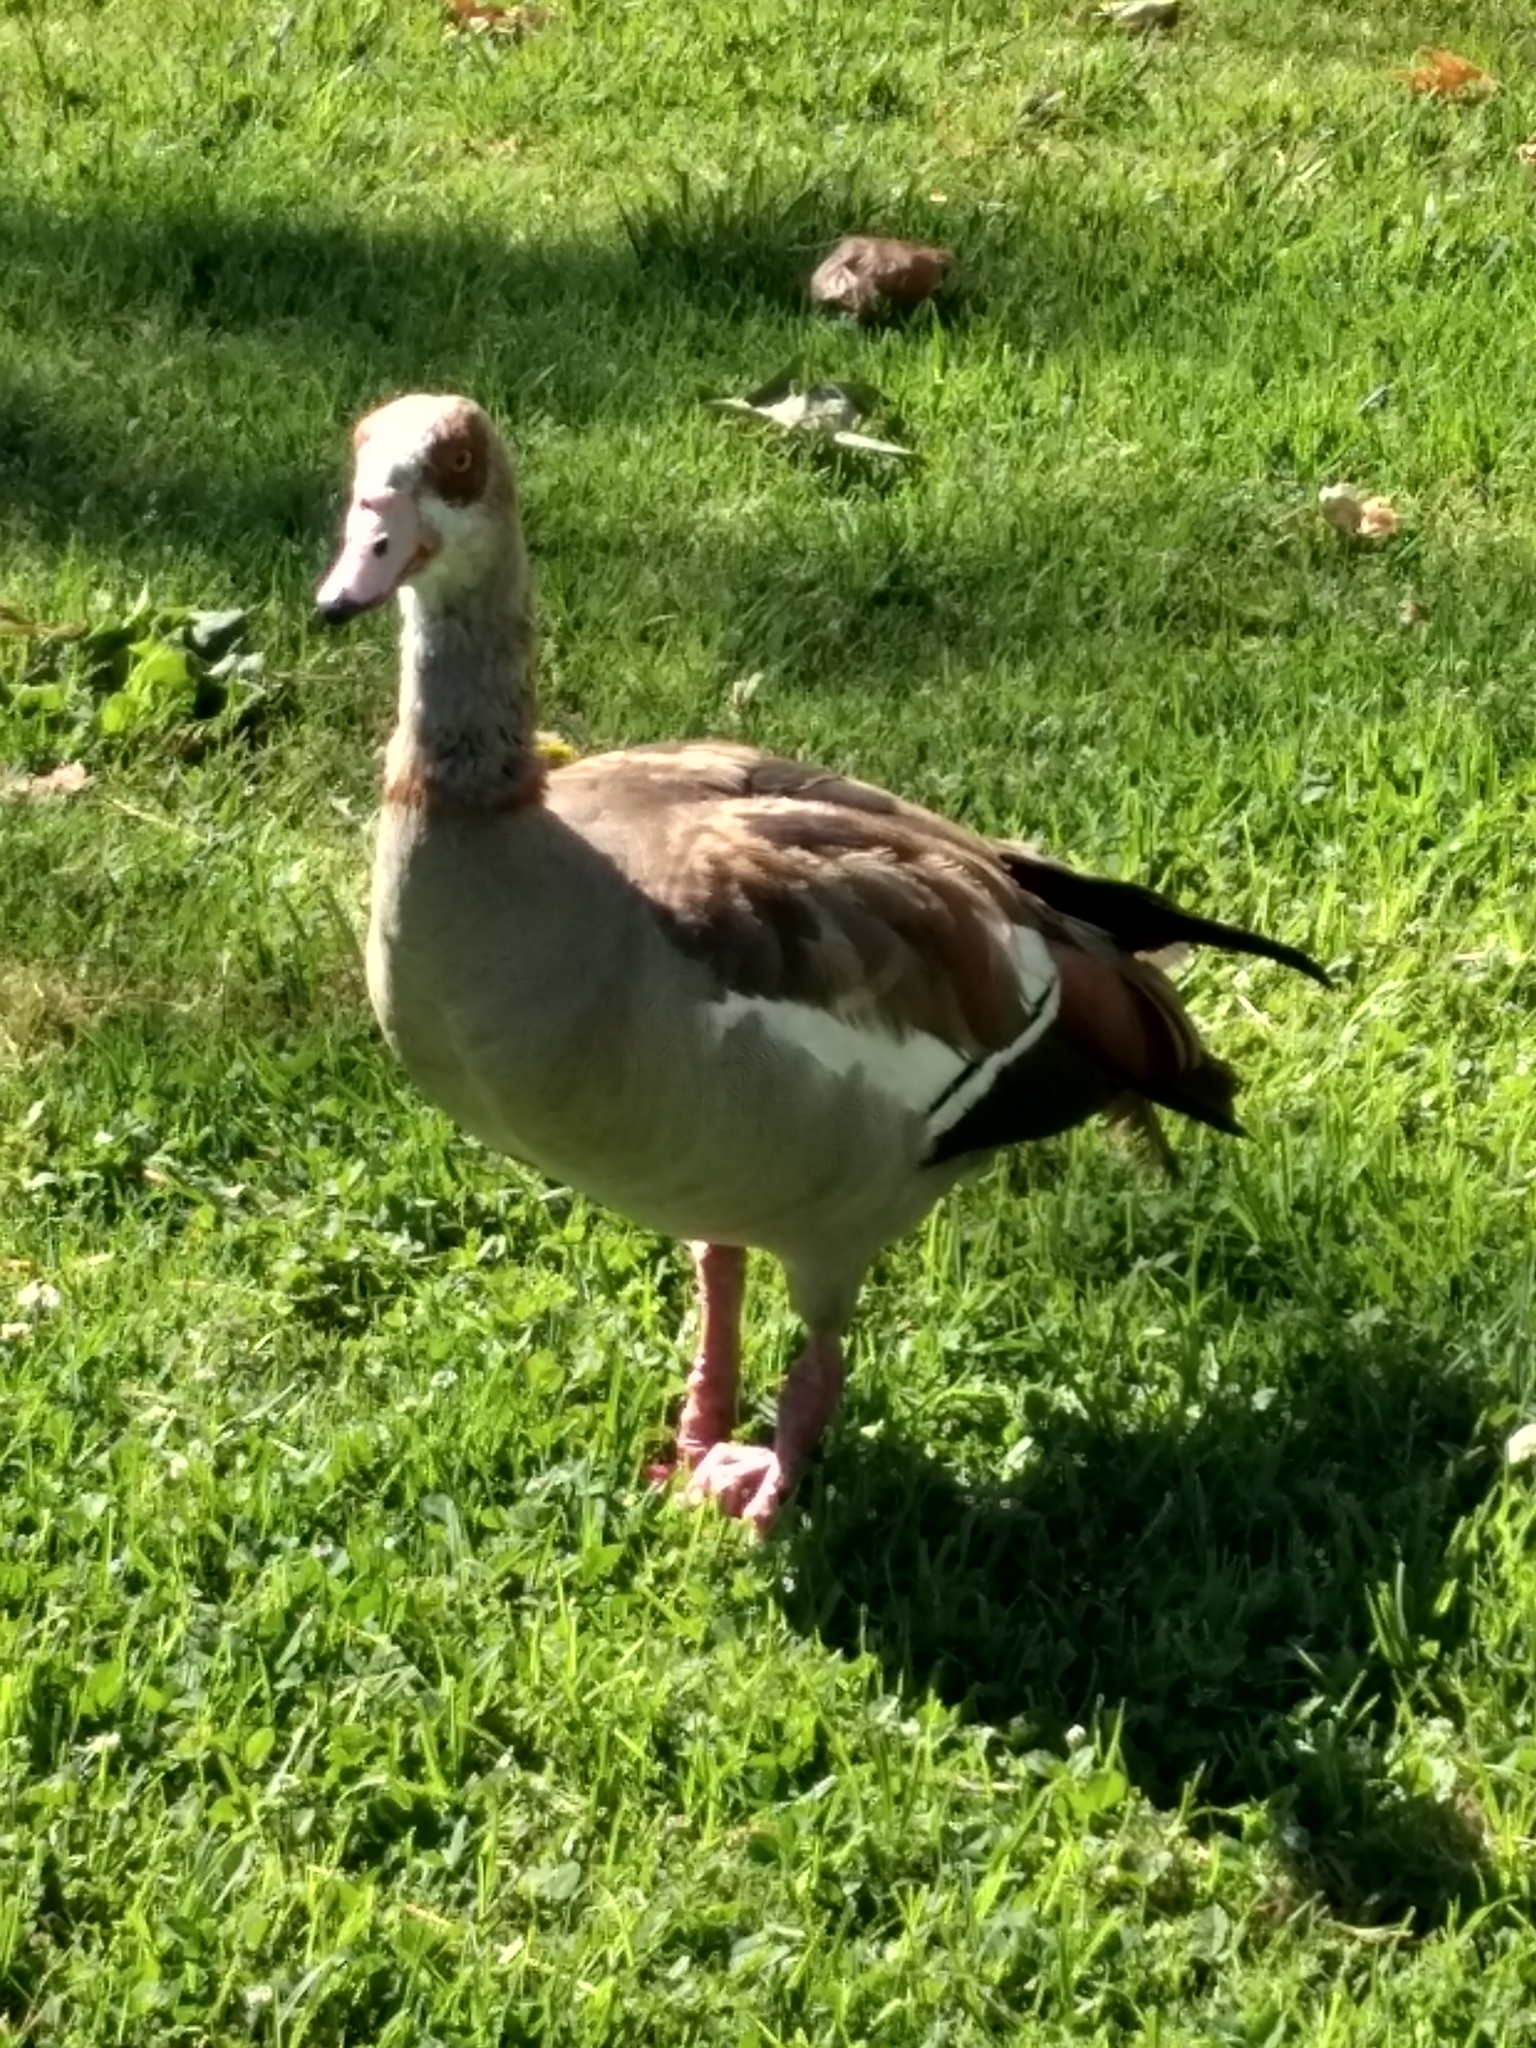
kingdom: Animalia
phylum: Chordata
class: Aves
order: Anseriformes
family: Anatidae
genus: Alopochen
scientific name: Alopochen aegyptiaca
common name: Egyptian goose
